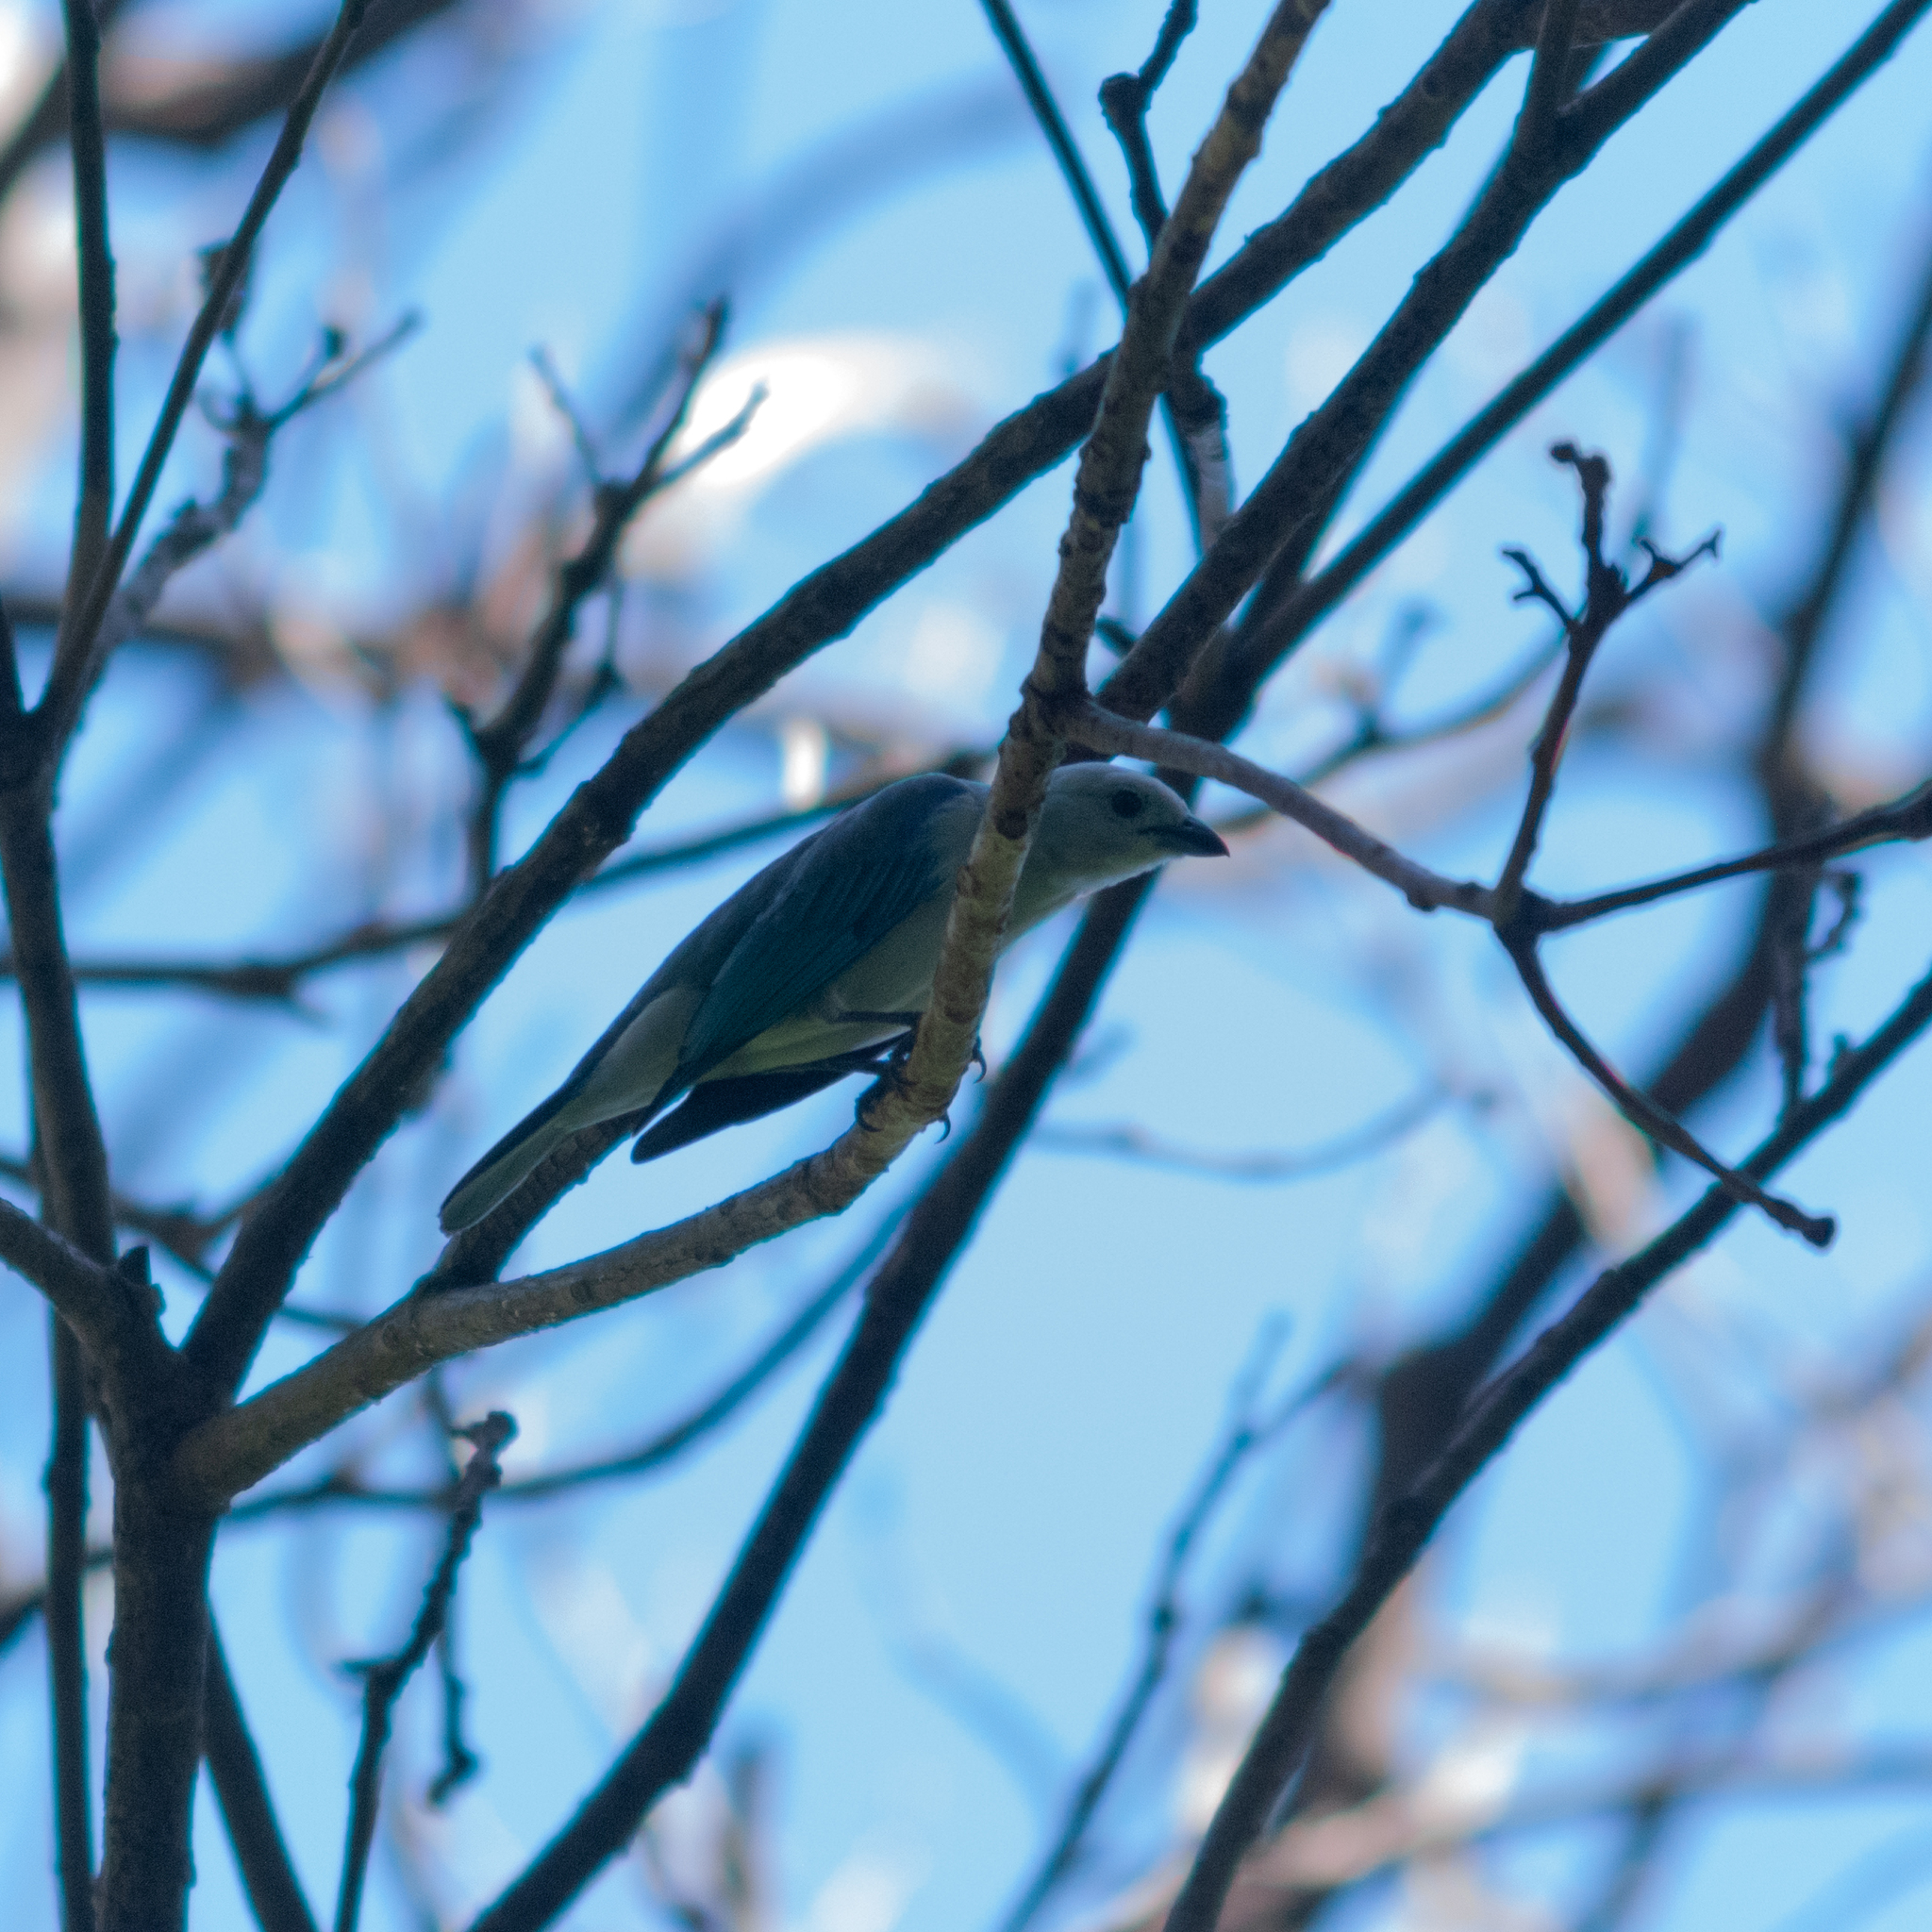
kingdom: Animalia
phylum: Chordata
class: Aves
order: Passeriformes
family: Thraupidae
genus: Thraupis
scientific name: Thraupis episcopus
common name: Blue-grey tanager
